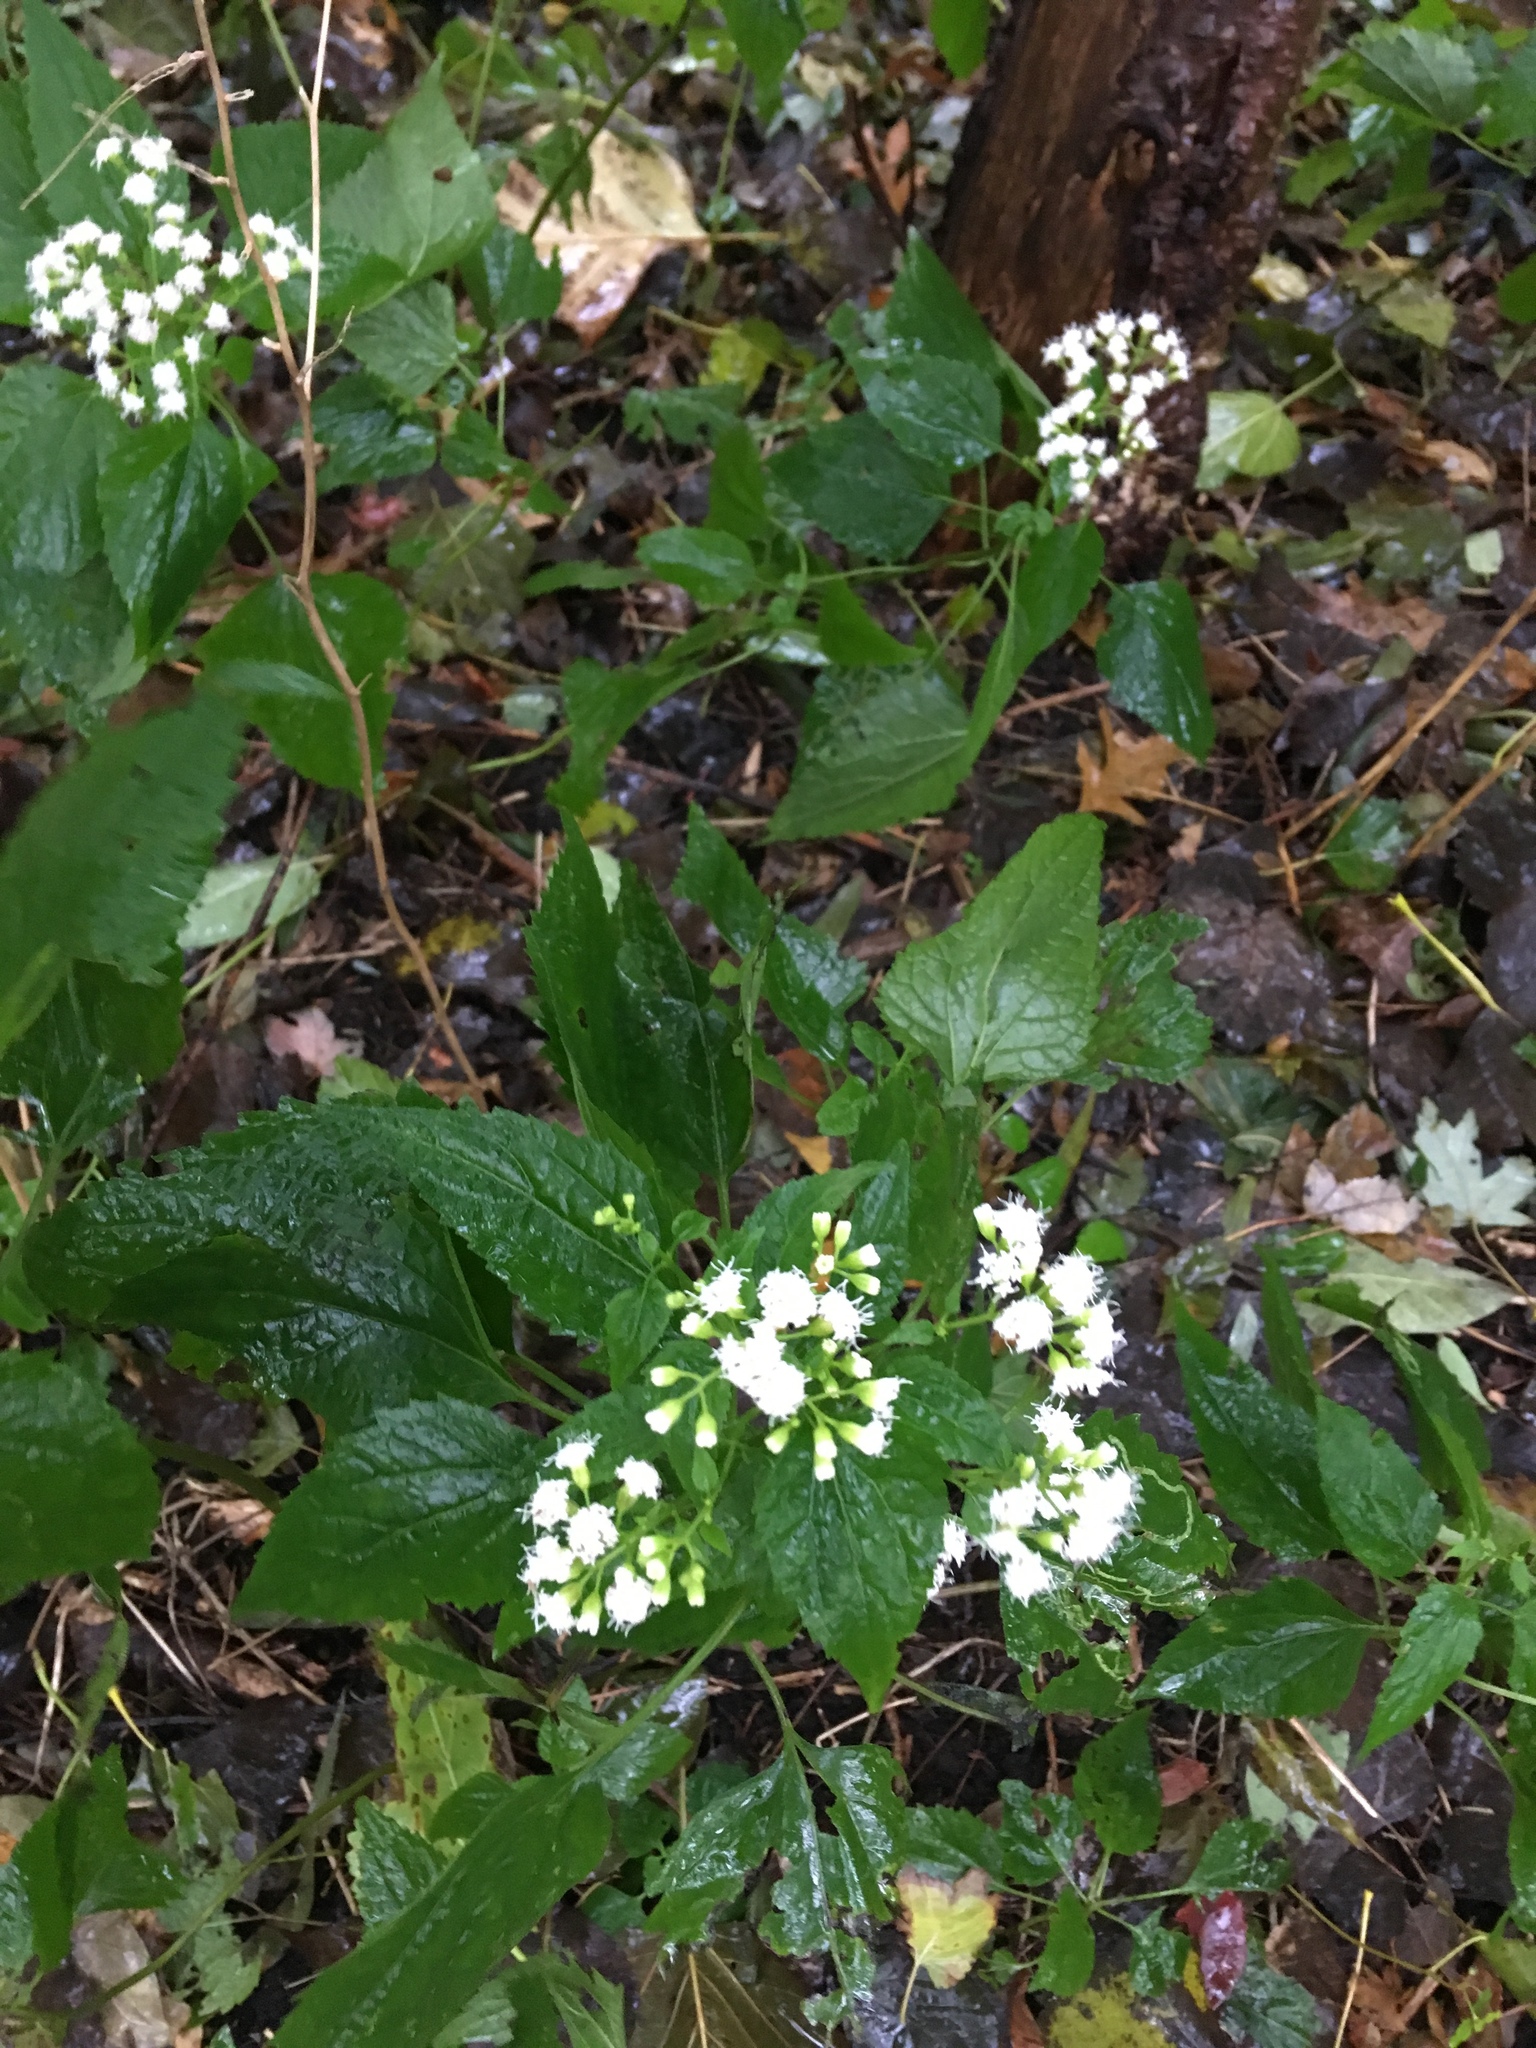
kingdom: Plantae
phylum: Tracheophyta
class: Magnoliopsida
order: Asterales
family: Asteraceae
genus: Ageratina
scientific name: Ageratina altissima
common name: White snakeroot
